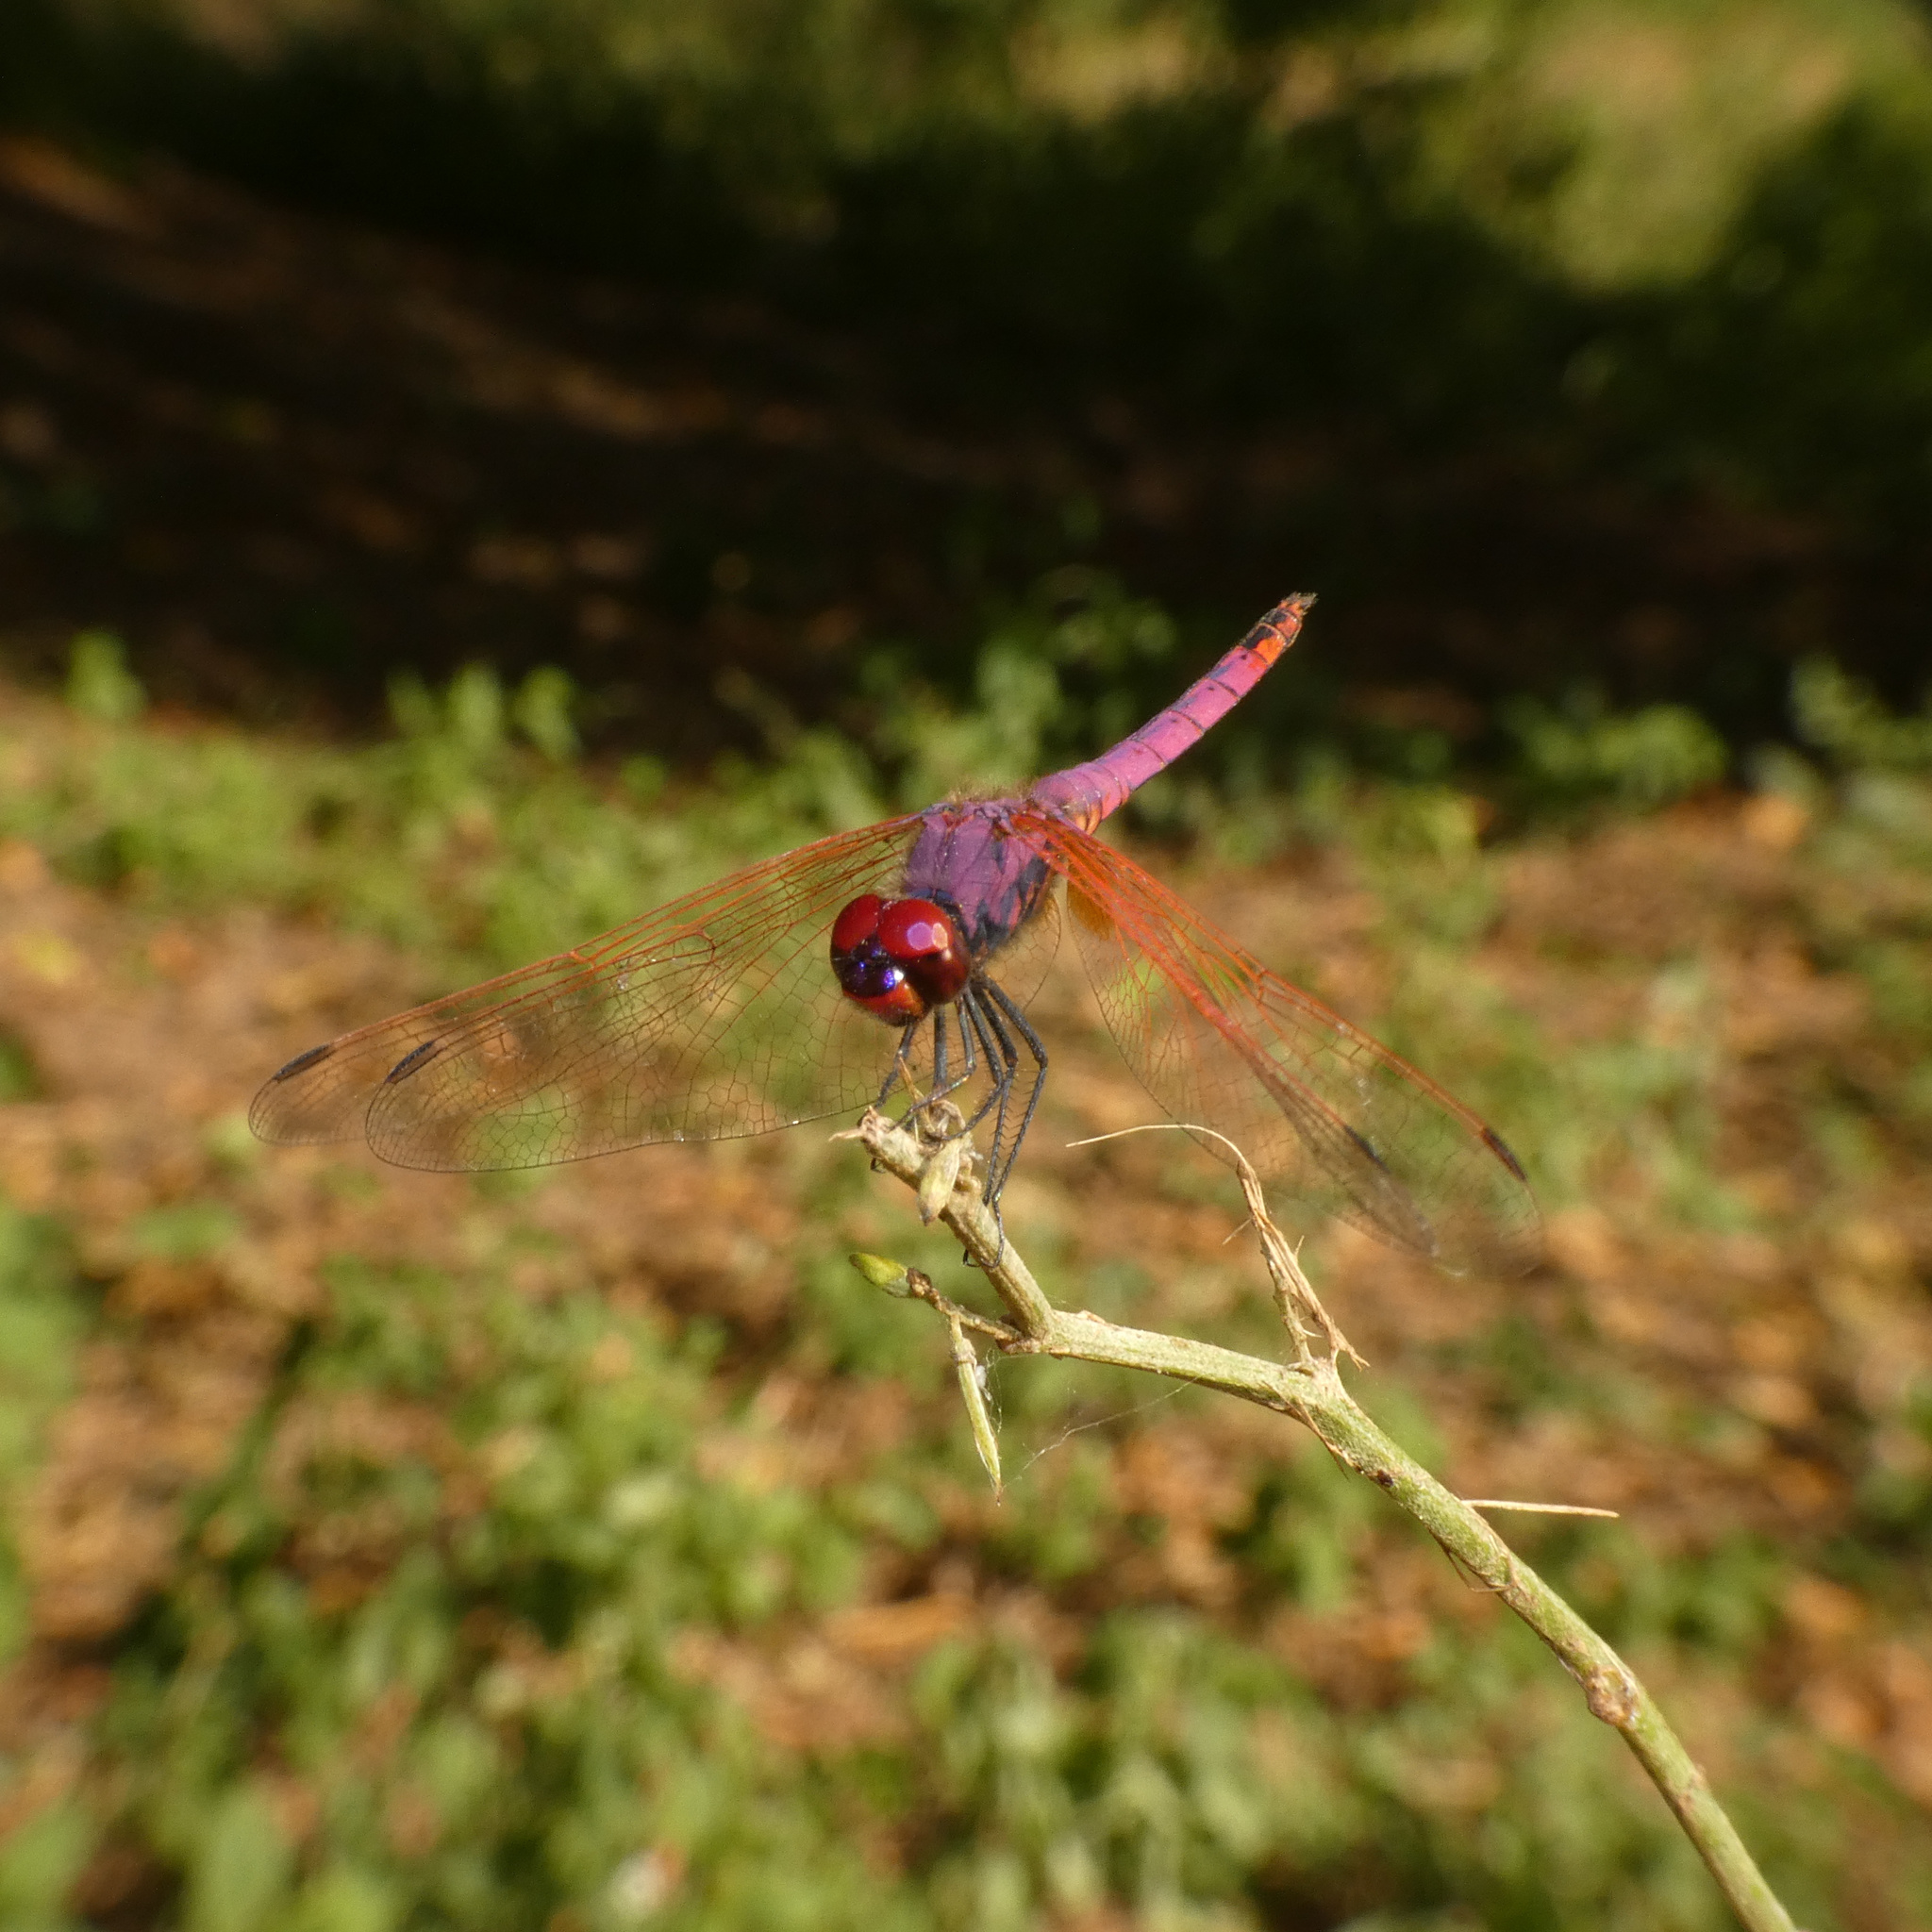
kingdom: Animalia
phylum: Arthropoda
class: Insecta
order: Odonata
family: Libellulidae
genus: Trithemis
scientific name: Trithemis annulata
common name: Violet dropwing
